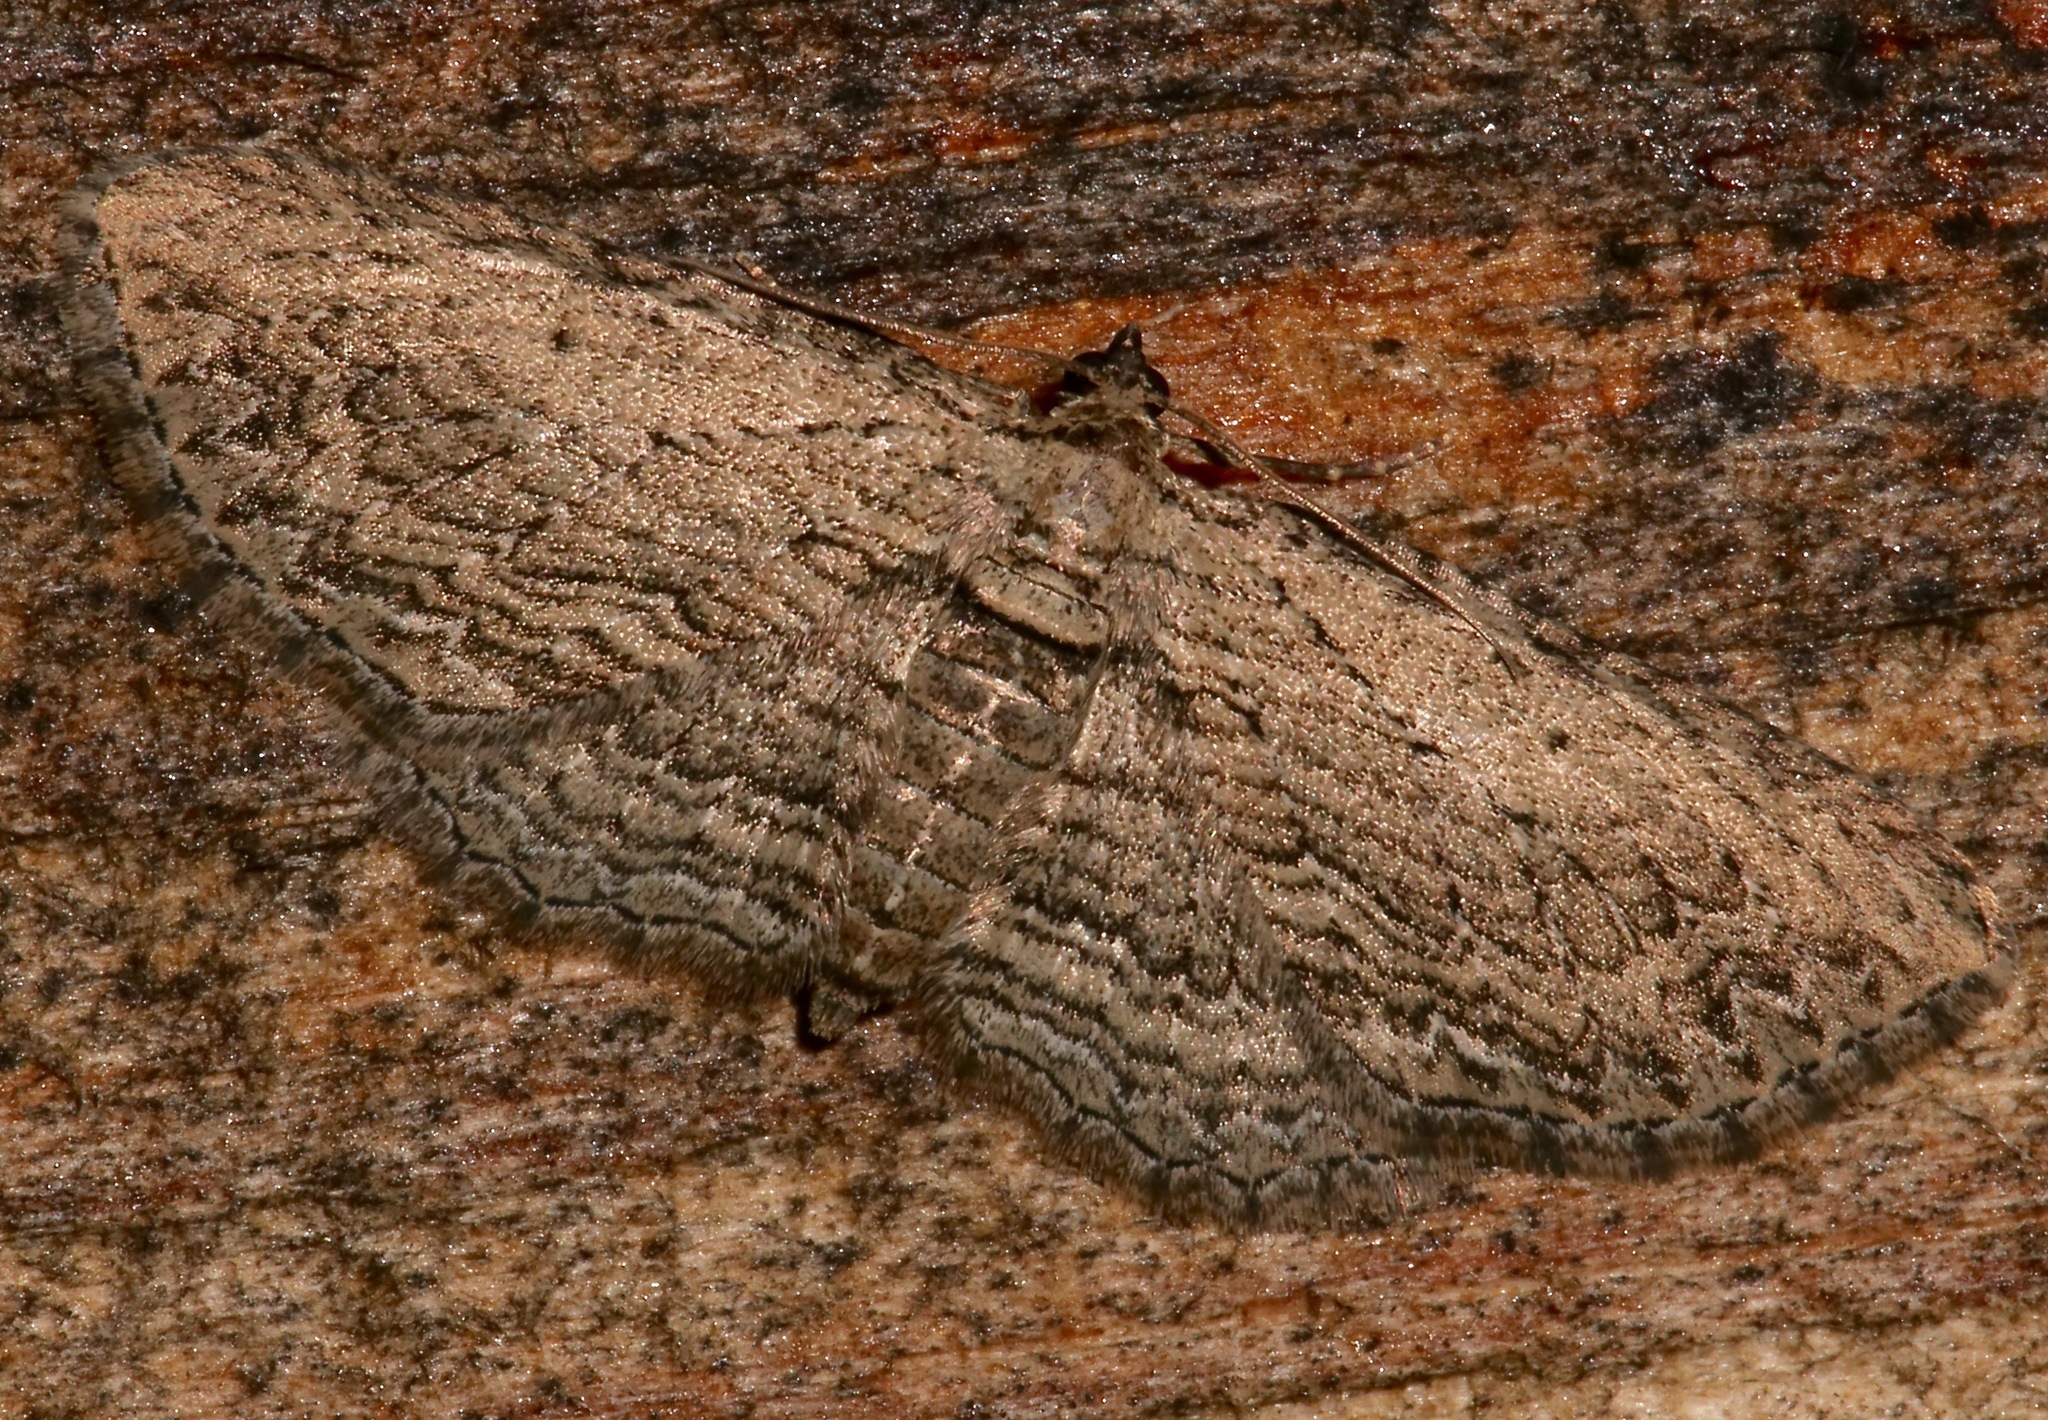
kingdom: Animalia
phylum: Arthropoda
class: Insecta
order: Lepidoptera
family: Geometridae
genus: Horisme
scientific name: Horisme intestinata
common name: Brown bark carpet
